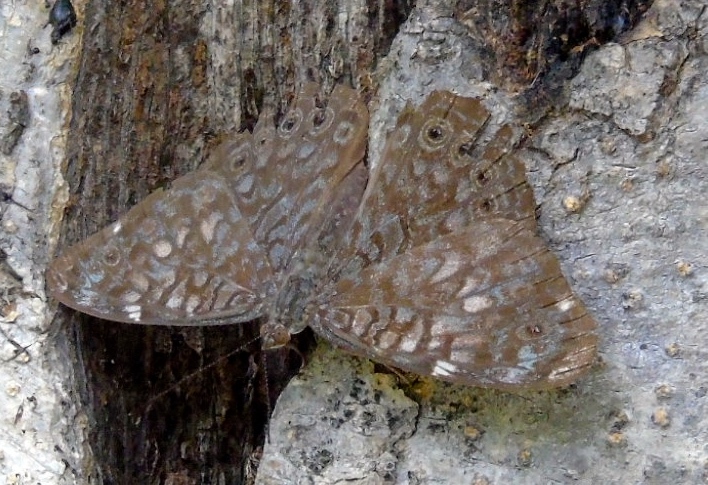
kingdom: Animalia
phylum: Arthropoda
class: Insecta
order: Lepidoptera
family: Nymphalidae
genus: Hamadryas
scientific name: Hamadryas lelaps
